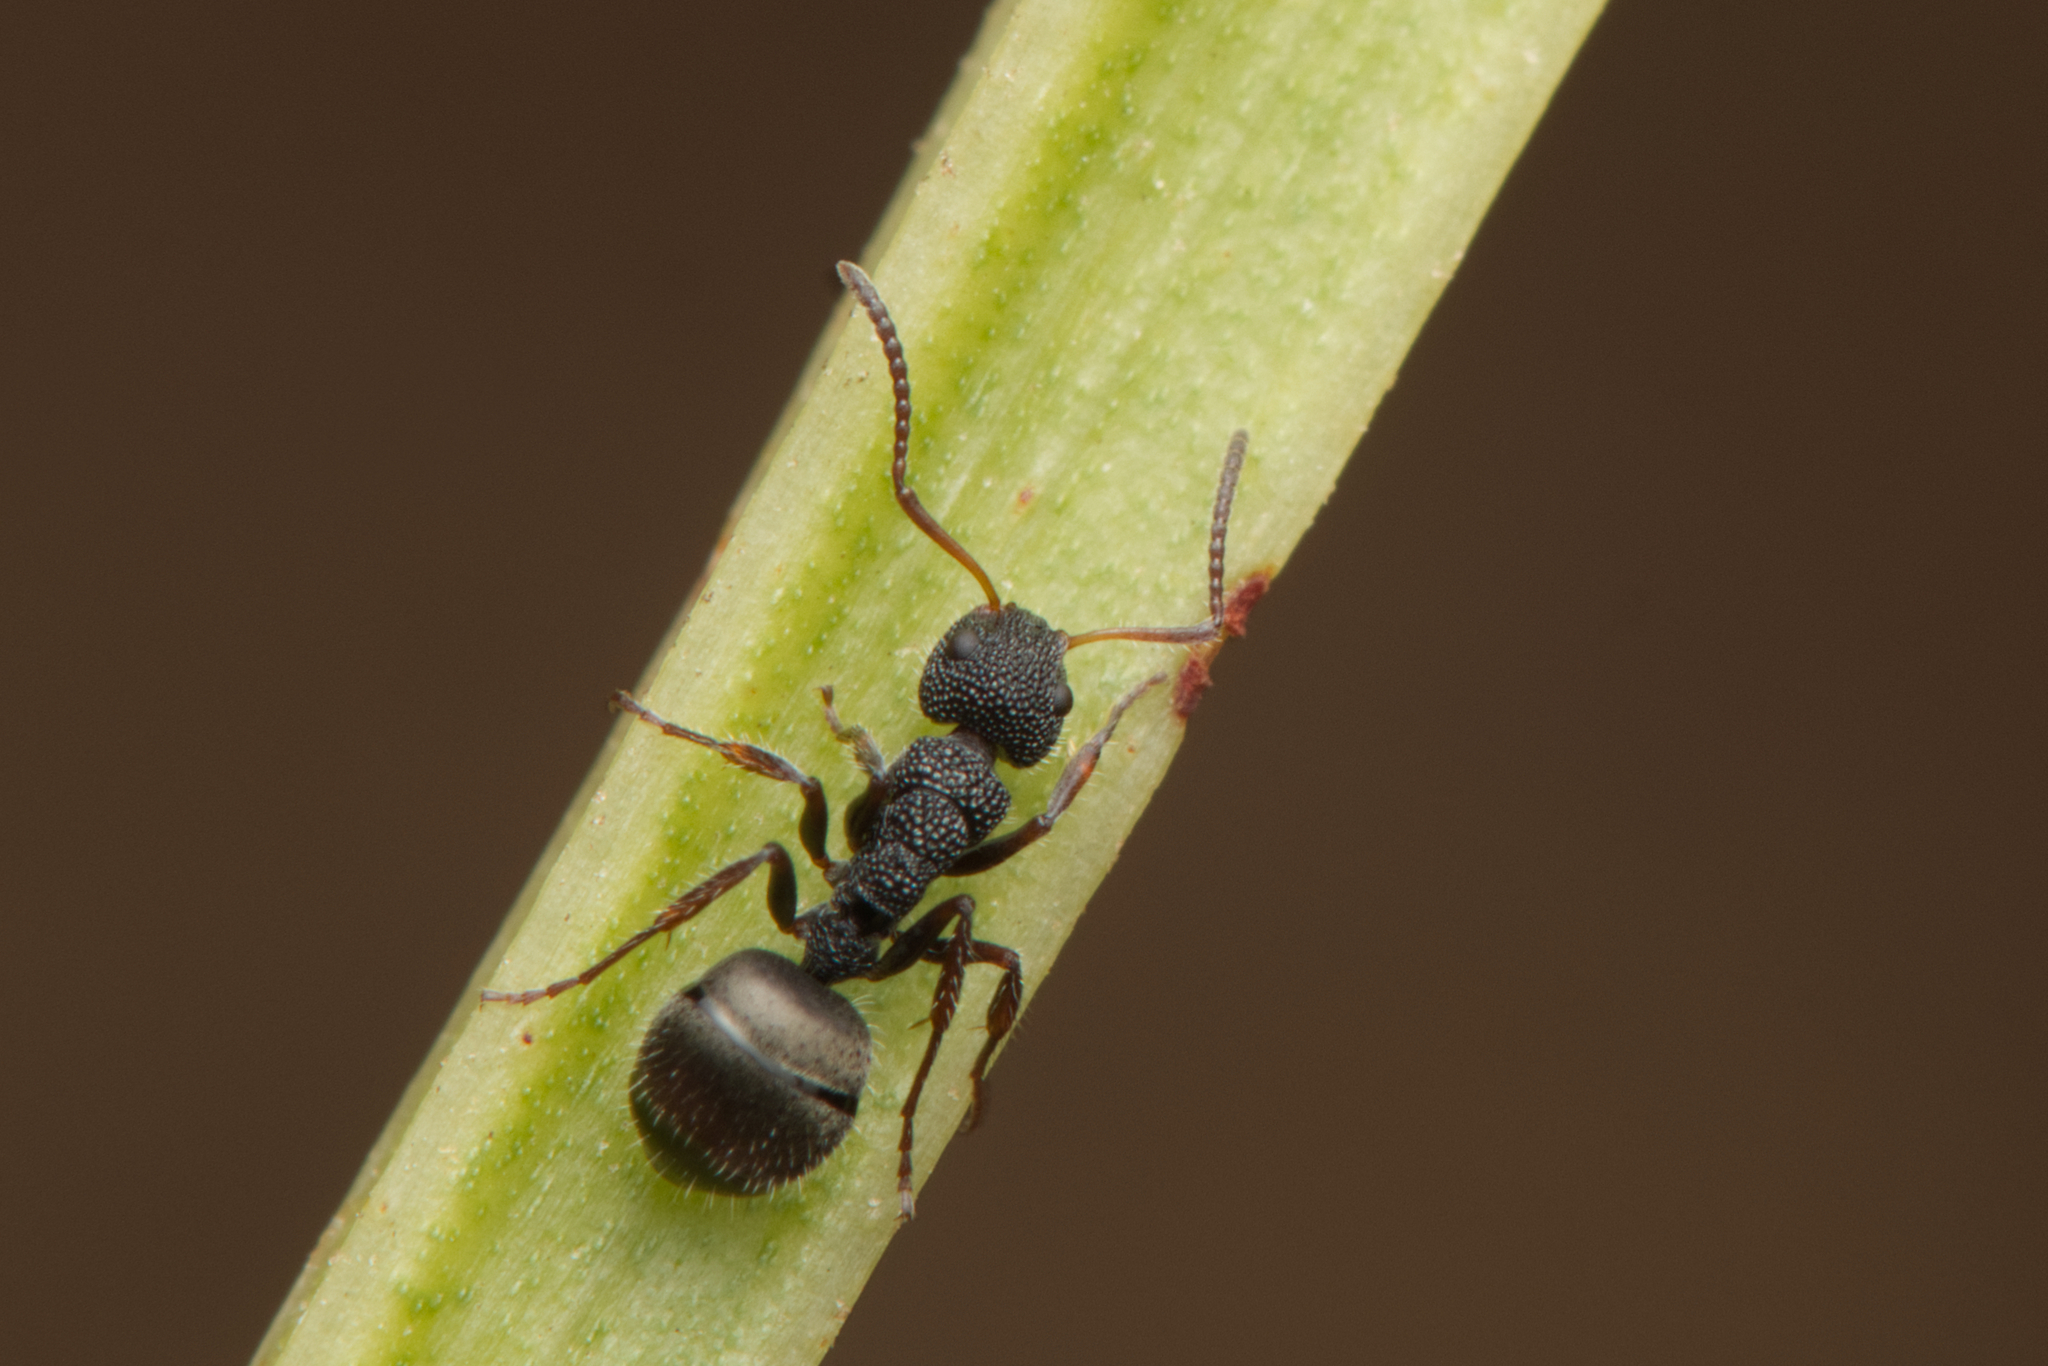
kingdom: Animalia
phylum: Arthropoda
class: Insecta
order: Hymenoptera
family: Formicidae
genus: Dolichoderus
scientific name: Dolichoderus scrobiculatus
